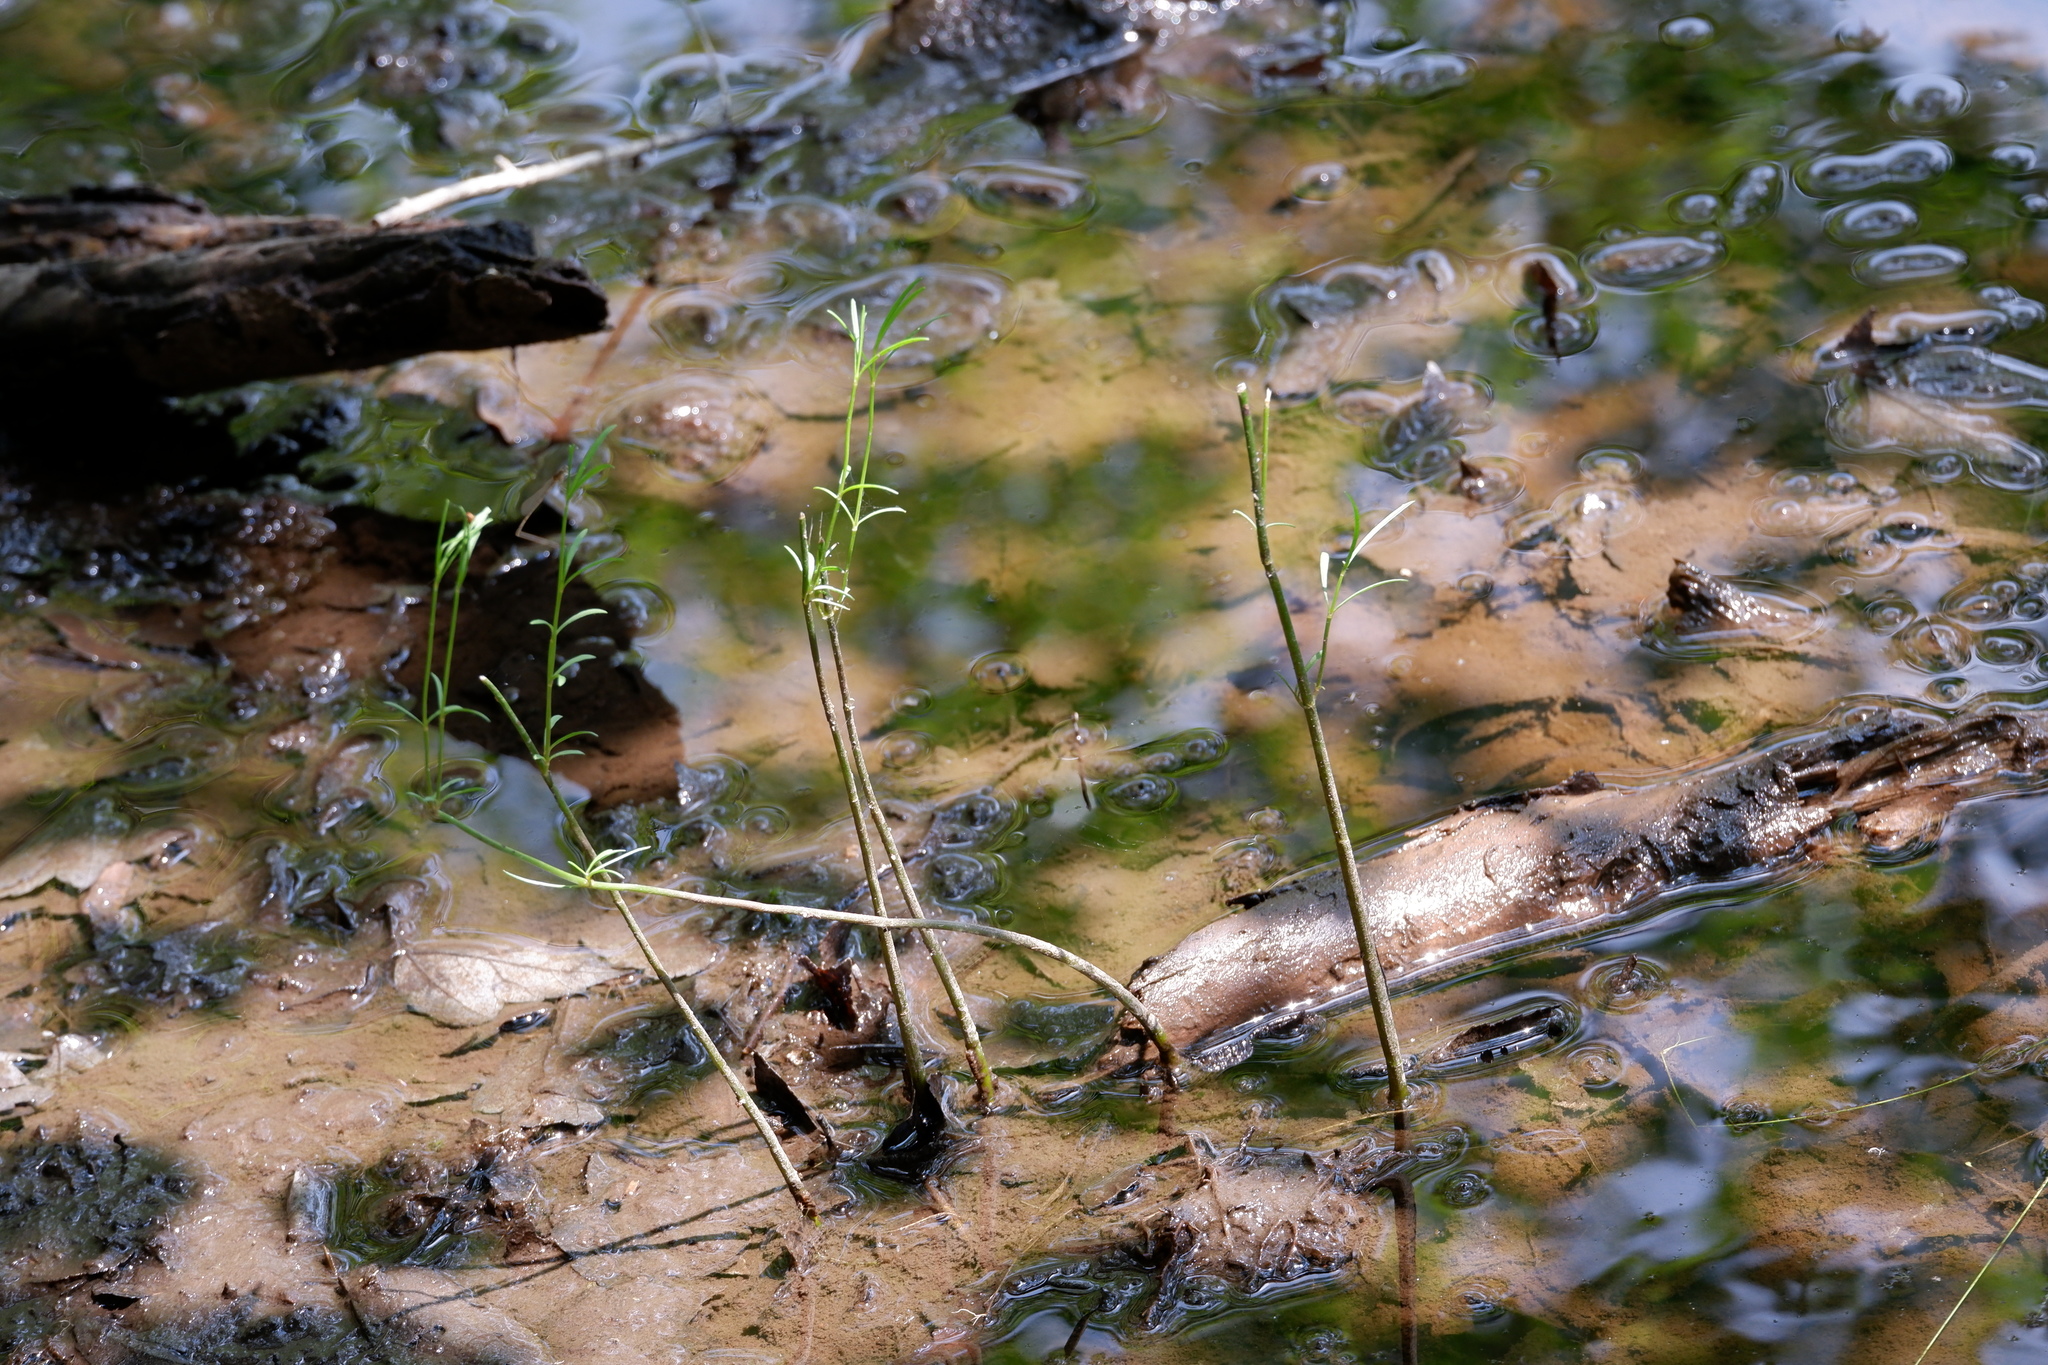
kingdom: Plantae
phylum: Tracheophyta
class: Magnoliopsida
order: Asterales
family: Asteraceae
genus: Coreopsis
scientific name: Coreopsis rosea
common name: Pink coreopsis
